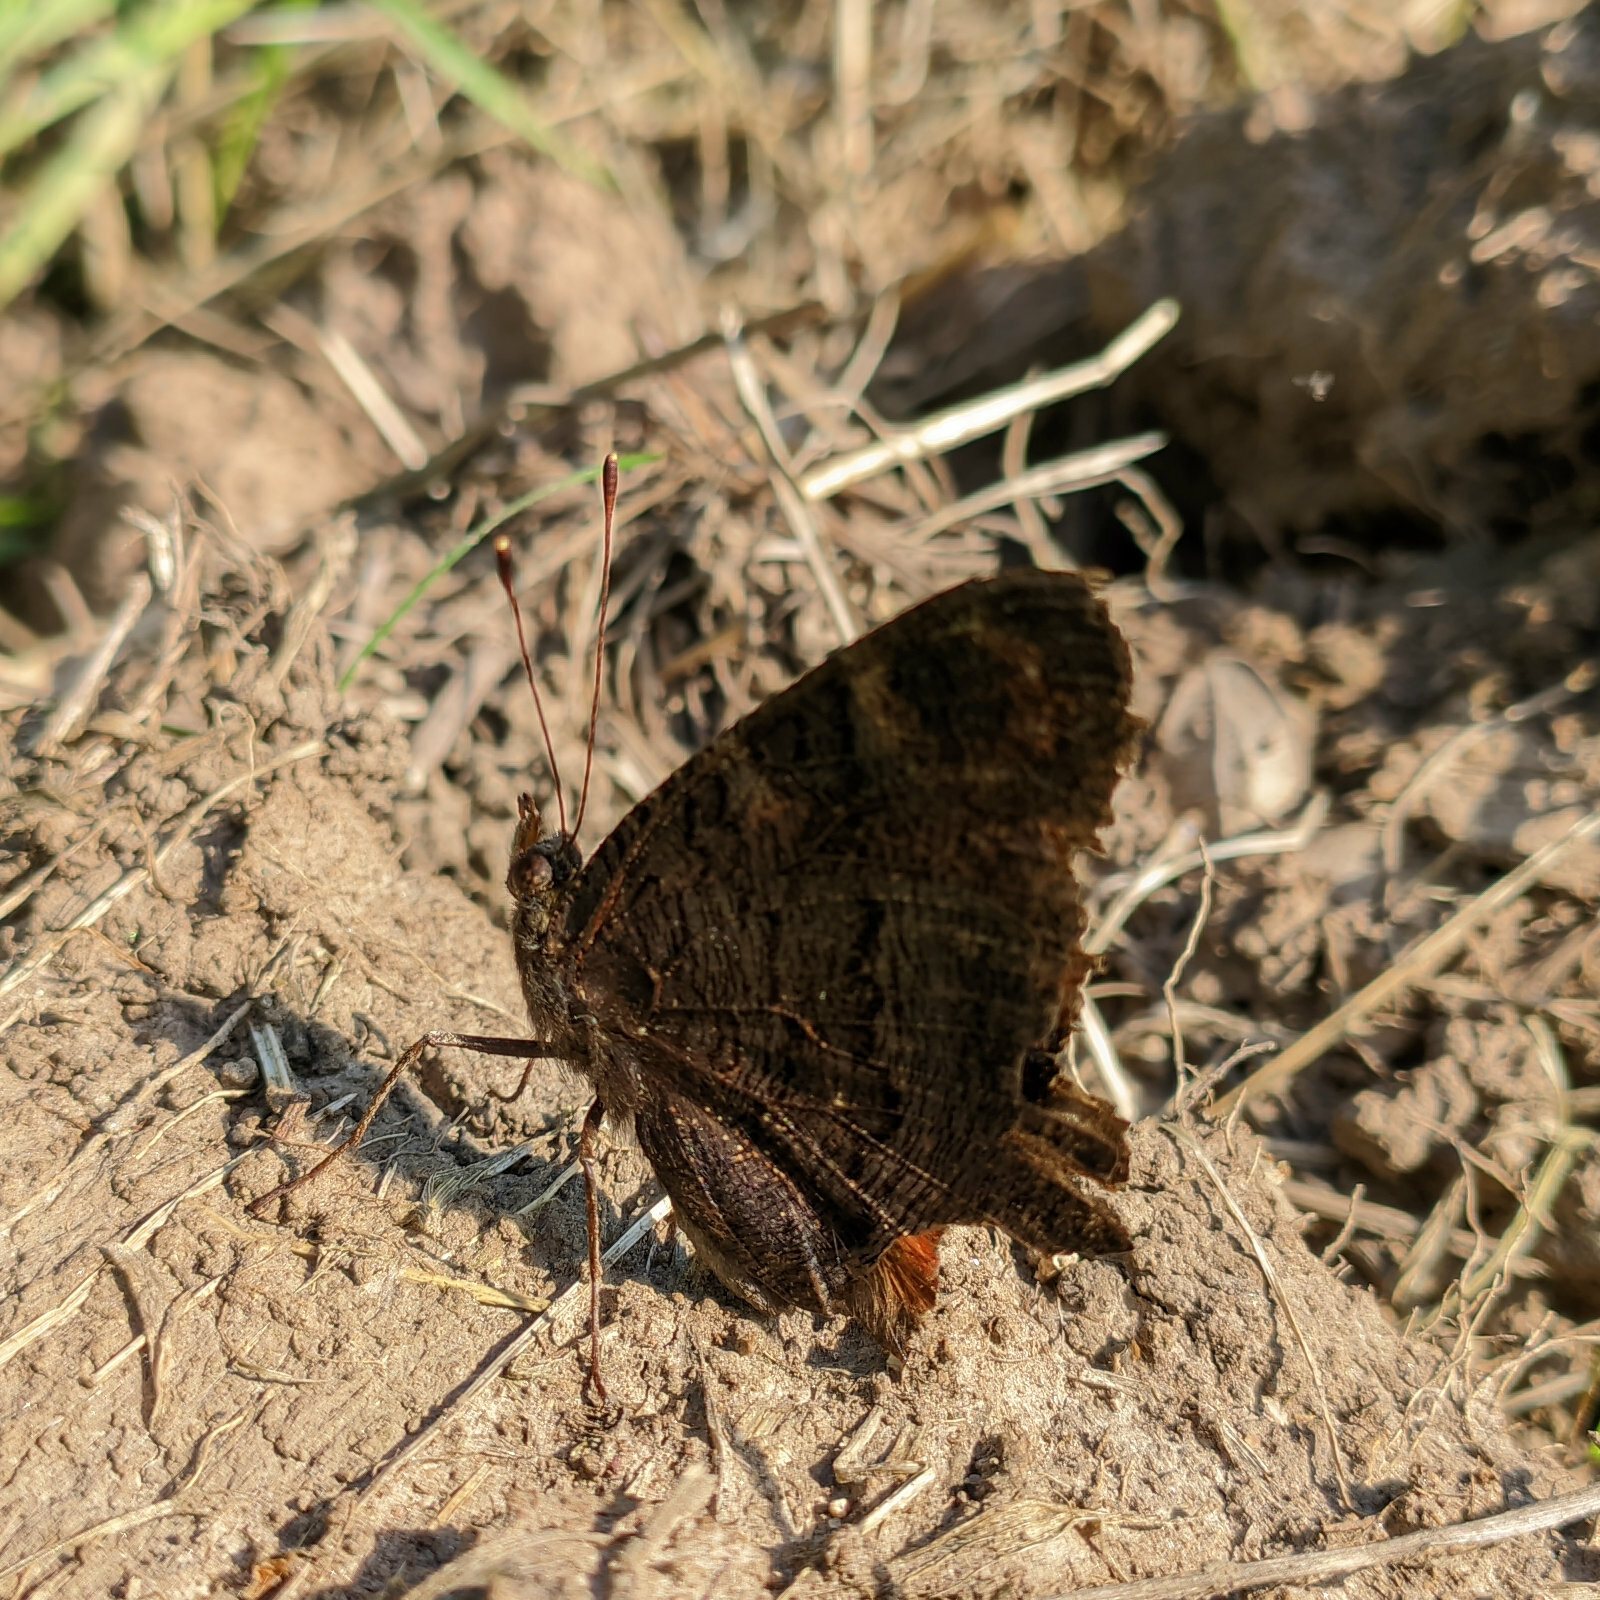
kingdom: Animalia
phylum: Arthropoda
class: Insecta
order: Lepidoptera
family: Nymphalidae
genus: Aglais
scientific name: Aglais io
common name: Peacock
